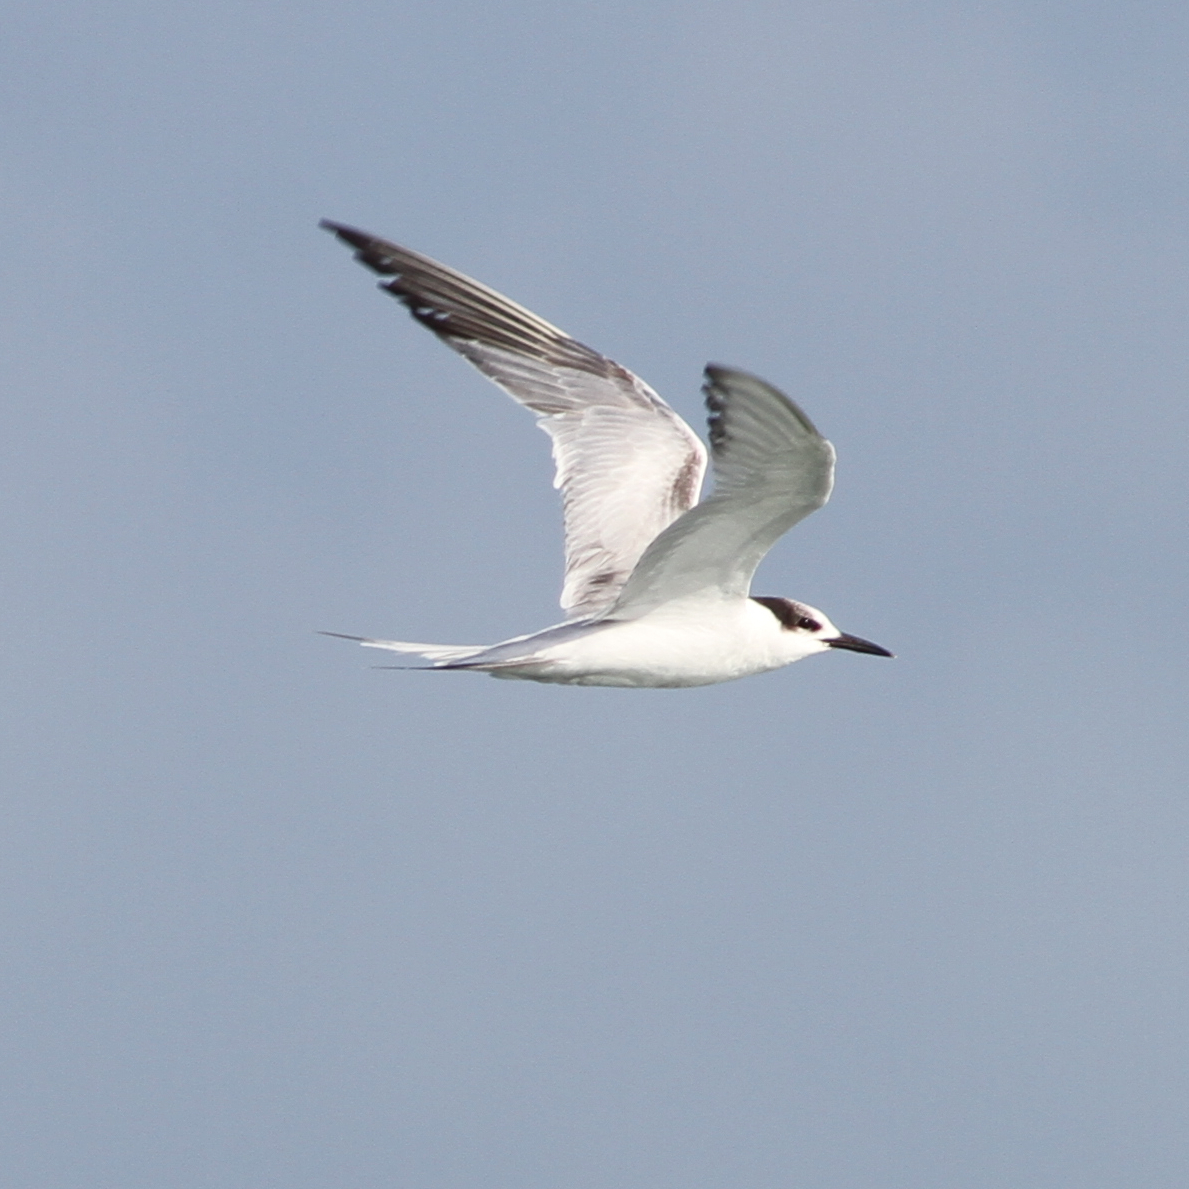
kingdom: Animalia
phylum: Chordata
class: Aves
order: Charadriiformes
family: Laridae
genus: Sterna
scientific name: Sterna hirundo
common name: Common tern
